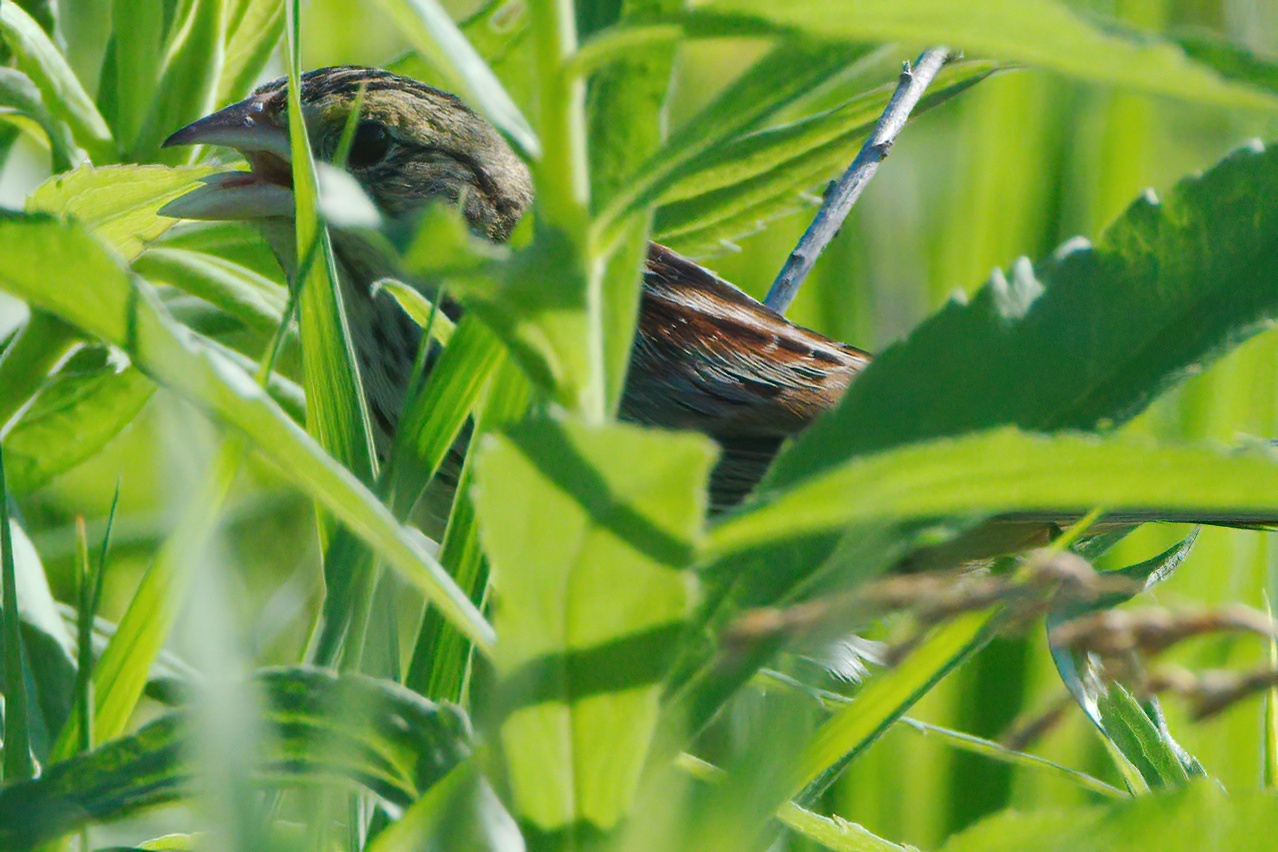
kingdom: Animalia
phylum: Chordata
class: Aves
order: Passeriformes
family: Passerellidae
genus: Centronyx
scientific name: Centronyx henslowii
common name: Henslow's sparrow
